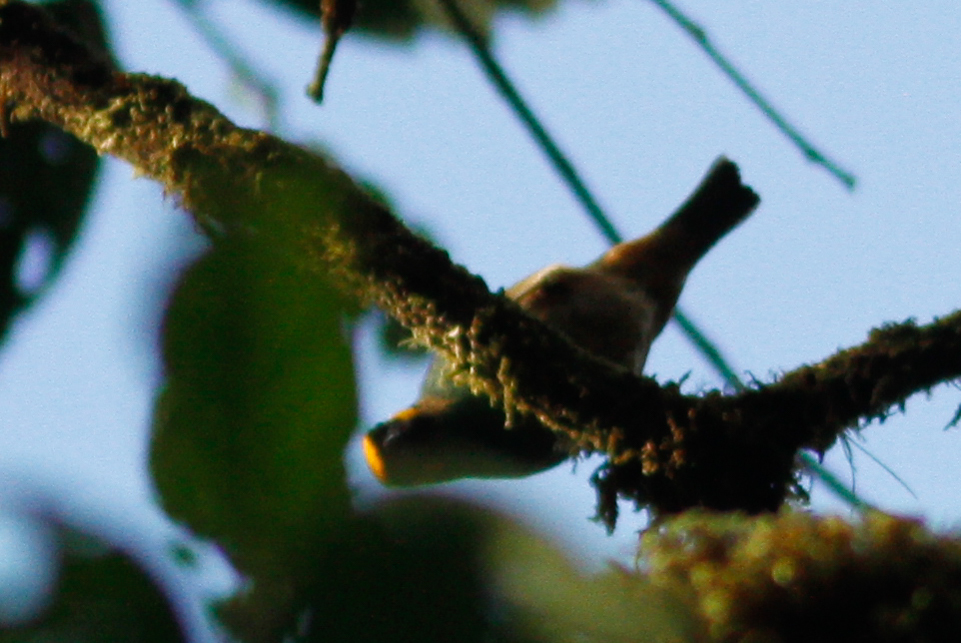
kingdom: Animalia
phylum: Chordata
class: Aves
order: Passeriformes
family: Thraupidae
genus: Tangara
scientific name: Tangara xanthocephala
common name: Saffron-crowned tanager
